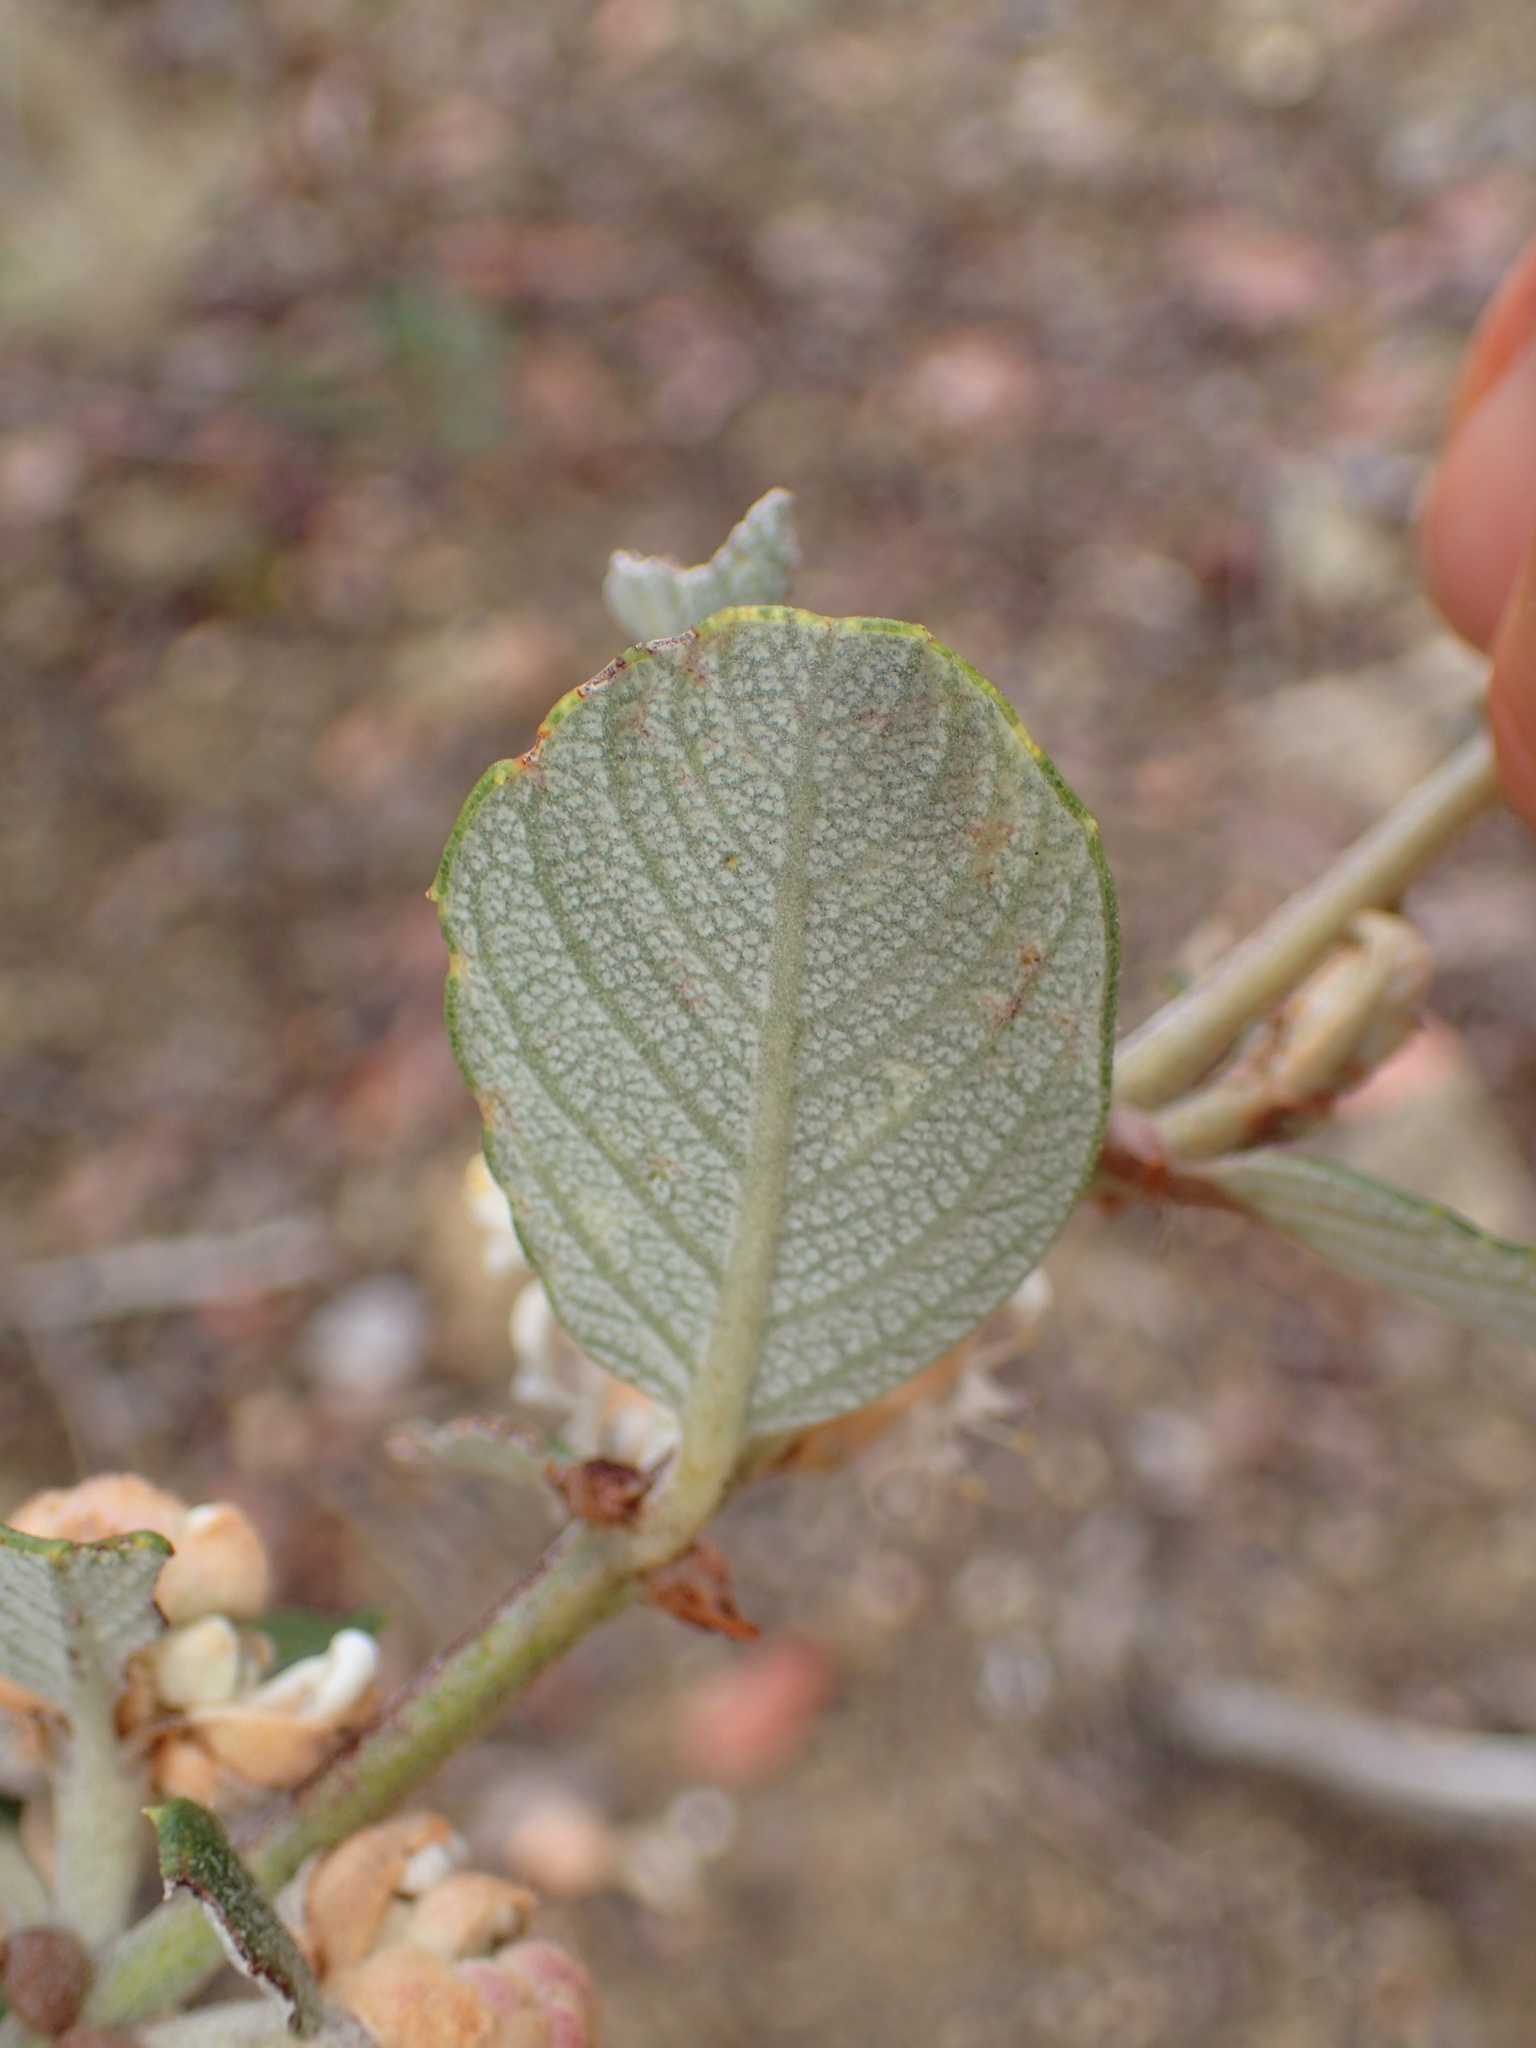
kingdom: Plantae
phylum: Tracheophyta
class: Magnoliopsida
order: Rosales
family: Rhamnaceae
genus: Ceanothus
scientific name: Ceanothus crassifolius
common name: Hoaryleaf ceanothus
